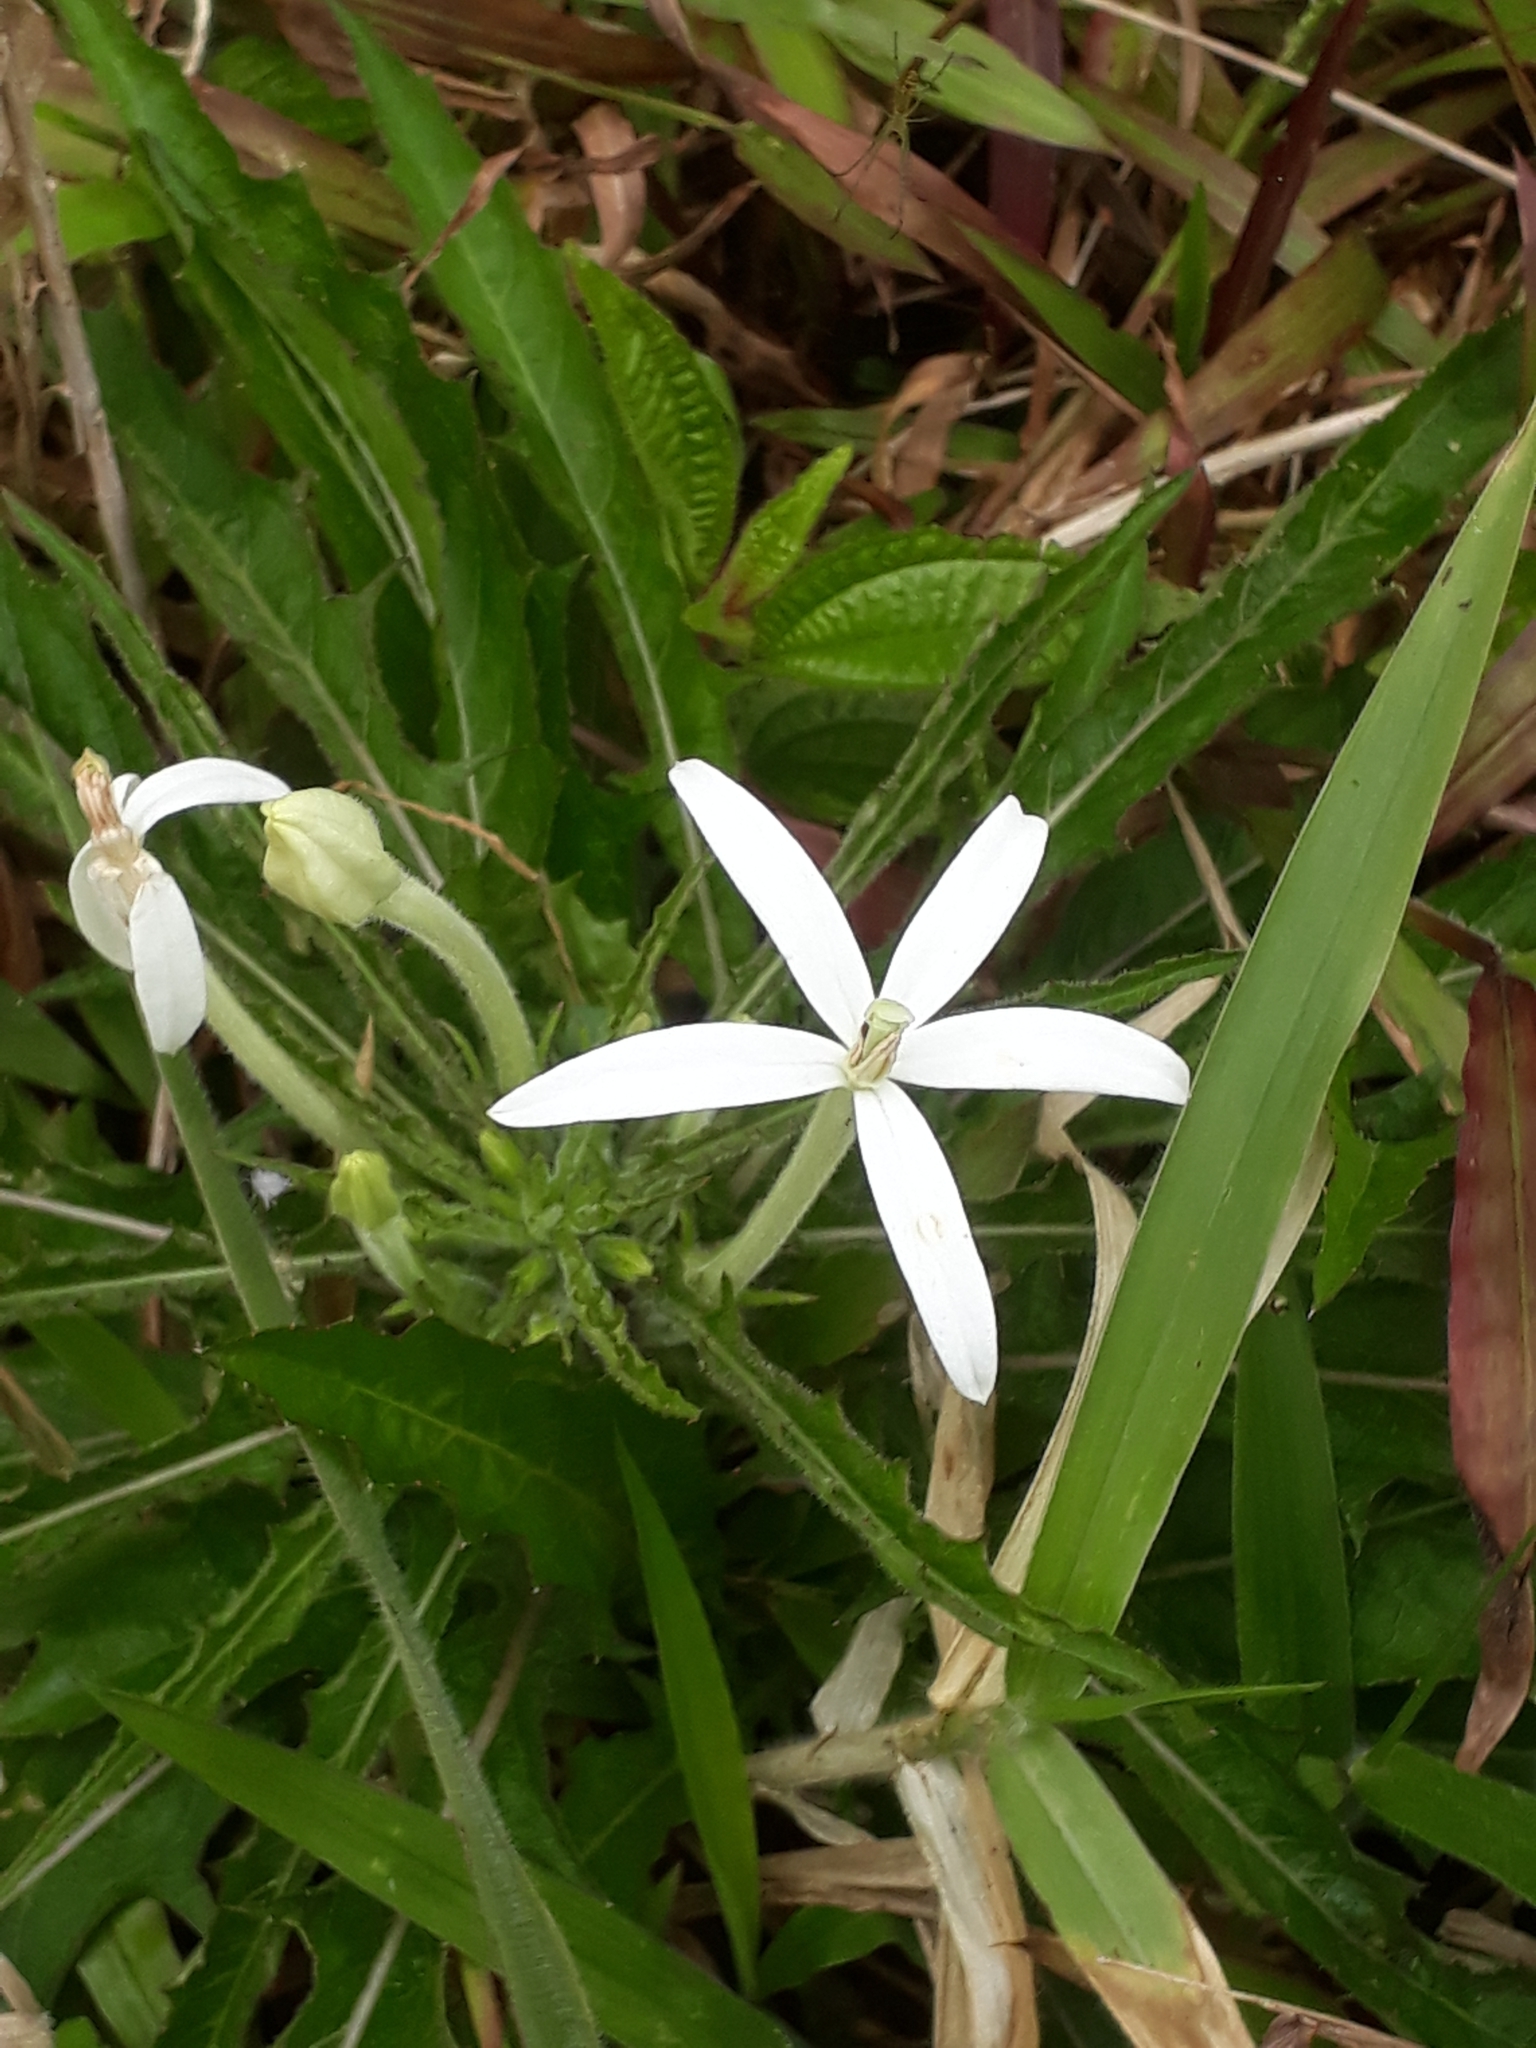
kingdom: Plantae
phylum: Tracheophyta
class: Magnoliopsida
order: Asterales
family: Campanulaceae
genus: Hippobroma
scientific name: Hippobroma longiflora
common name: Madamfate
